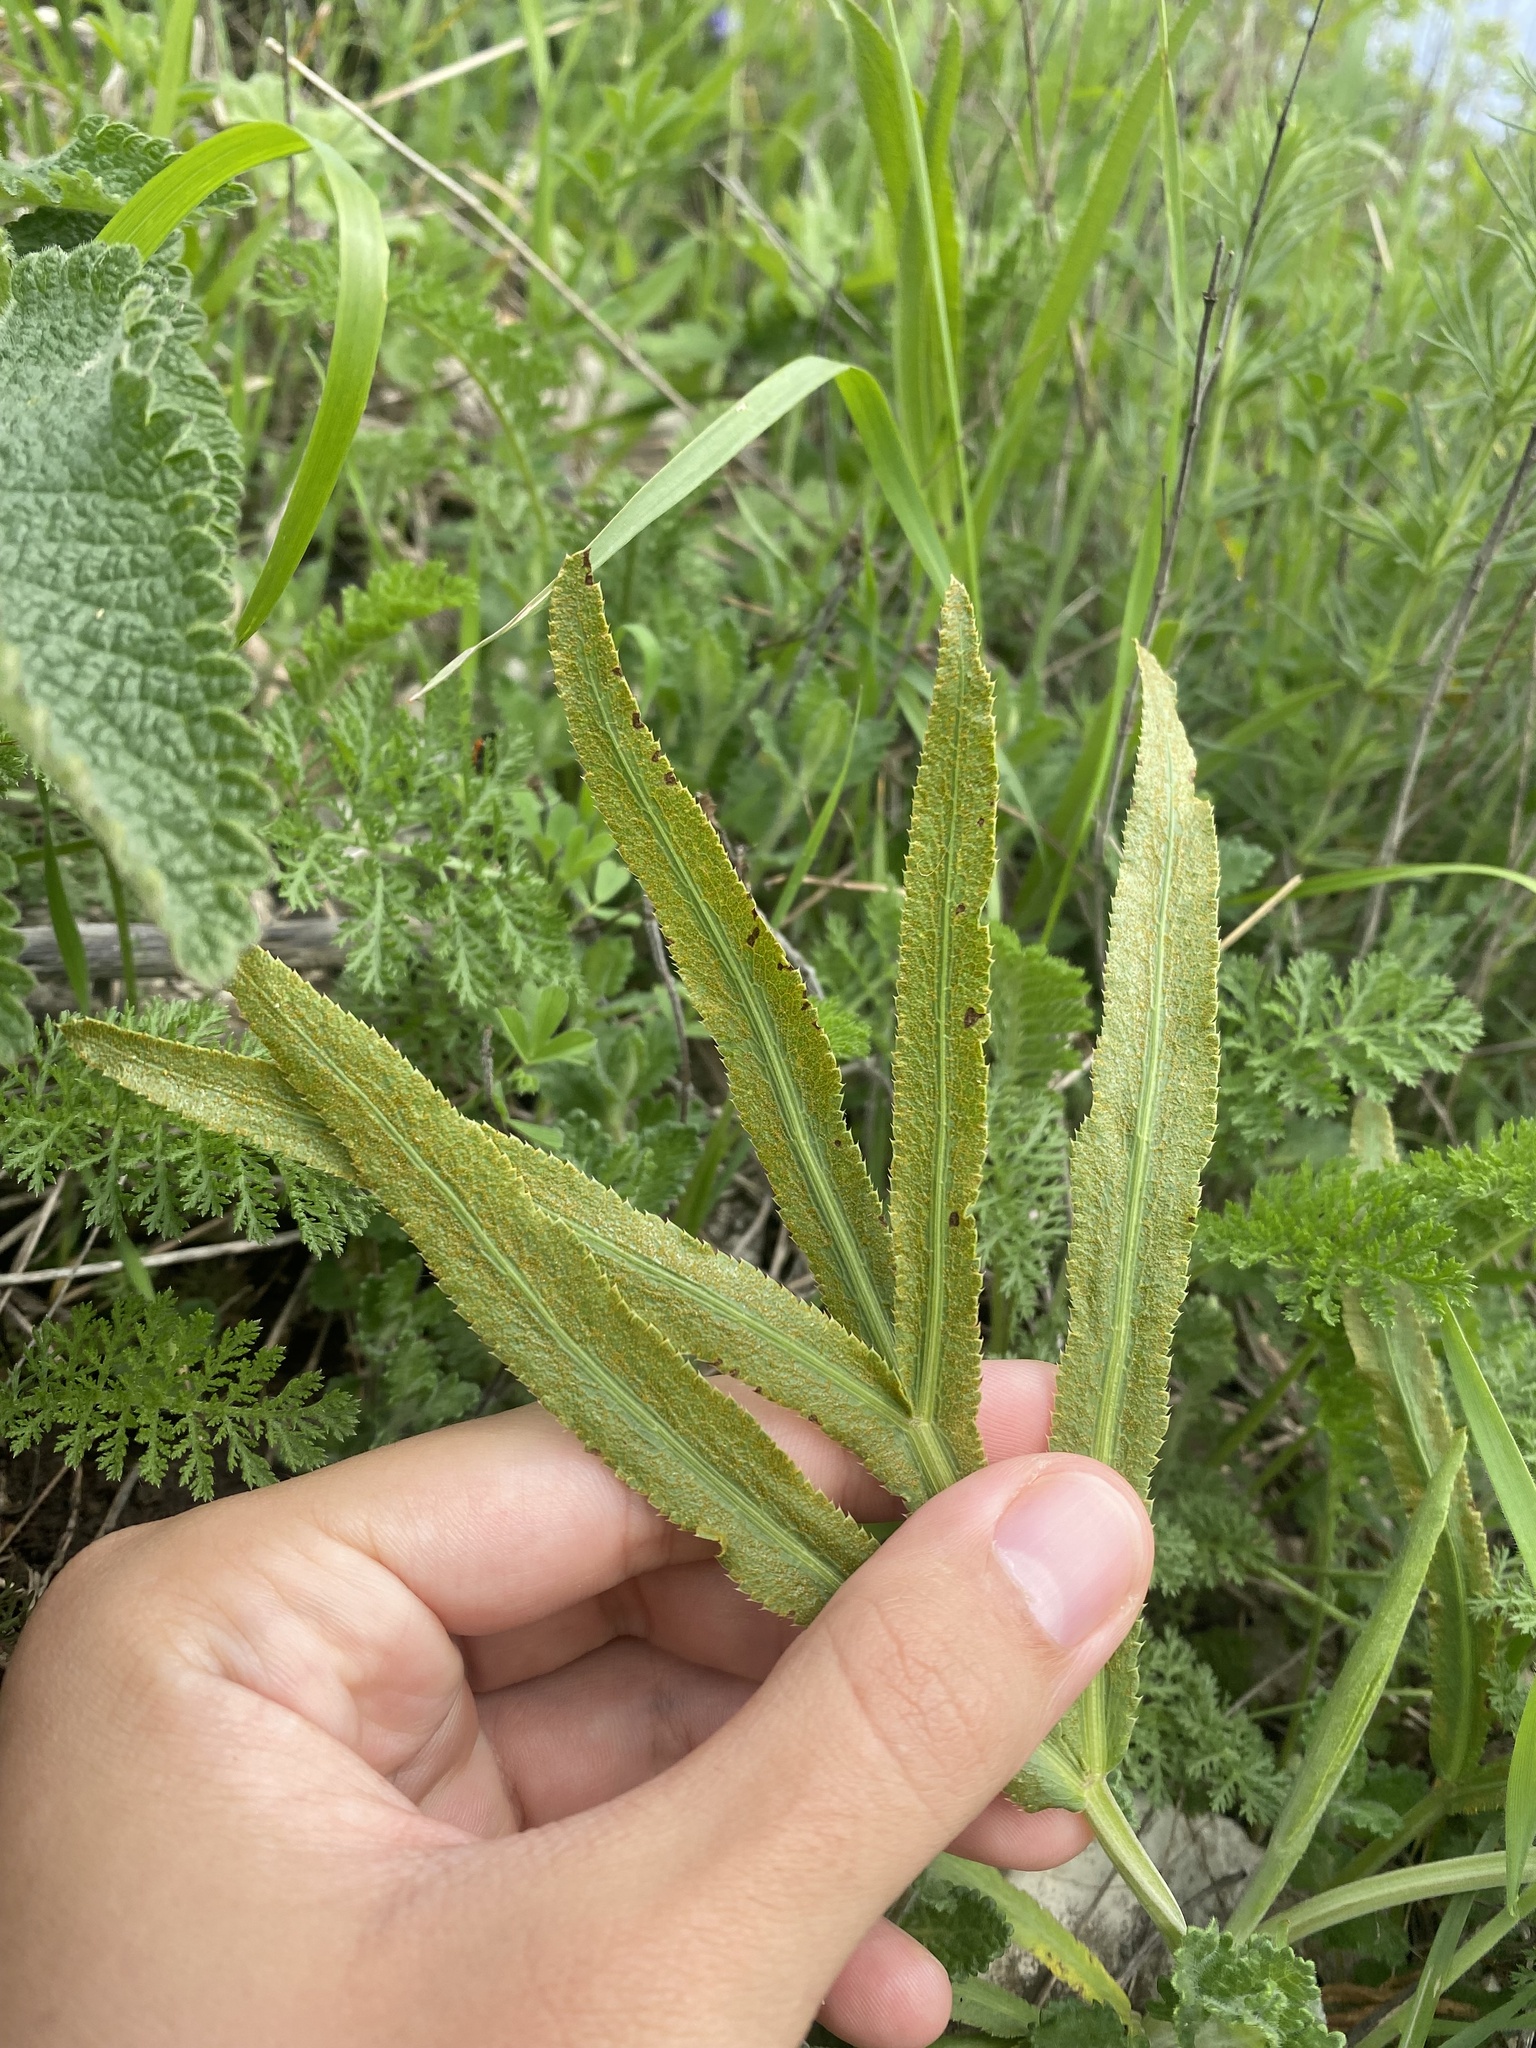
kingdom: Fungi
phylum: Basidiomycota
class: Pucciniomycetes
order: Pucciniales
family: Pucciniaceae
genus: Puccinia
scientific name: Puccinia sii-falcariae
